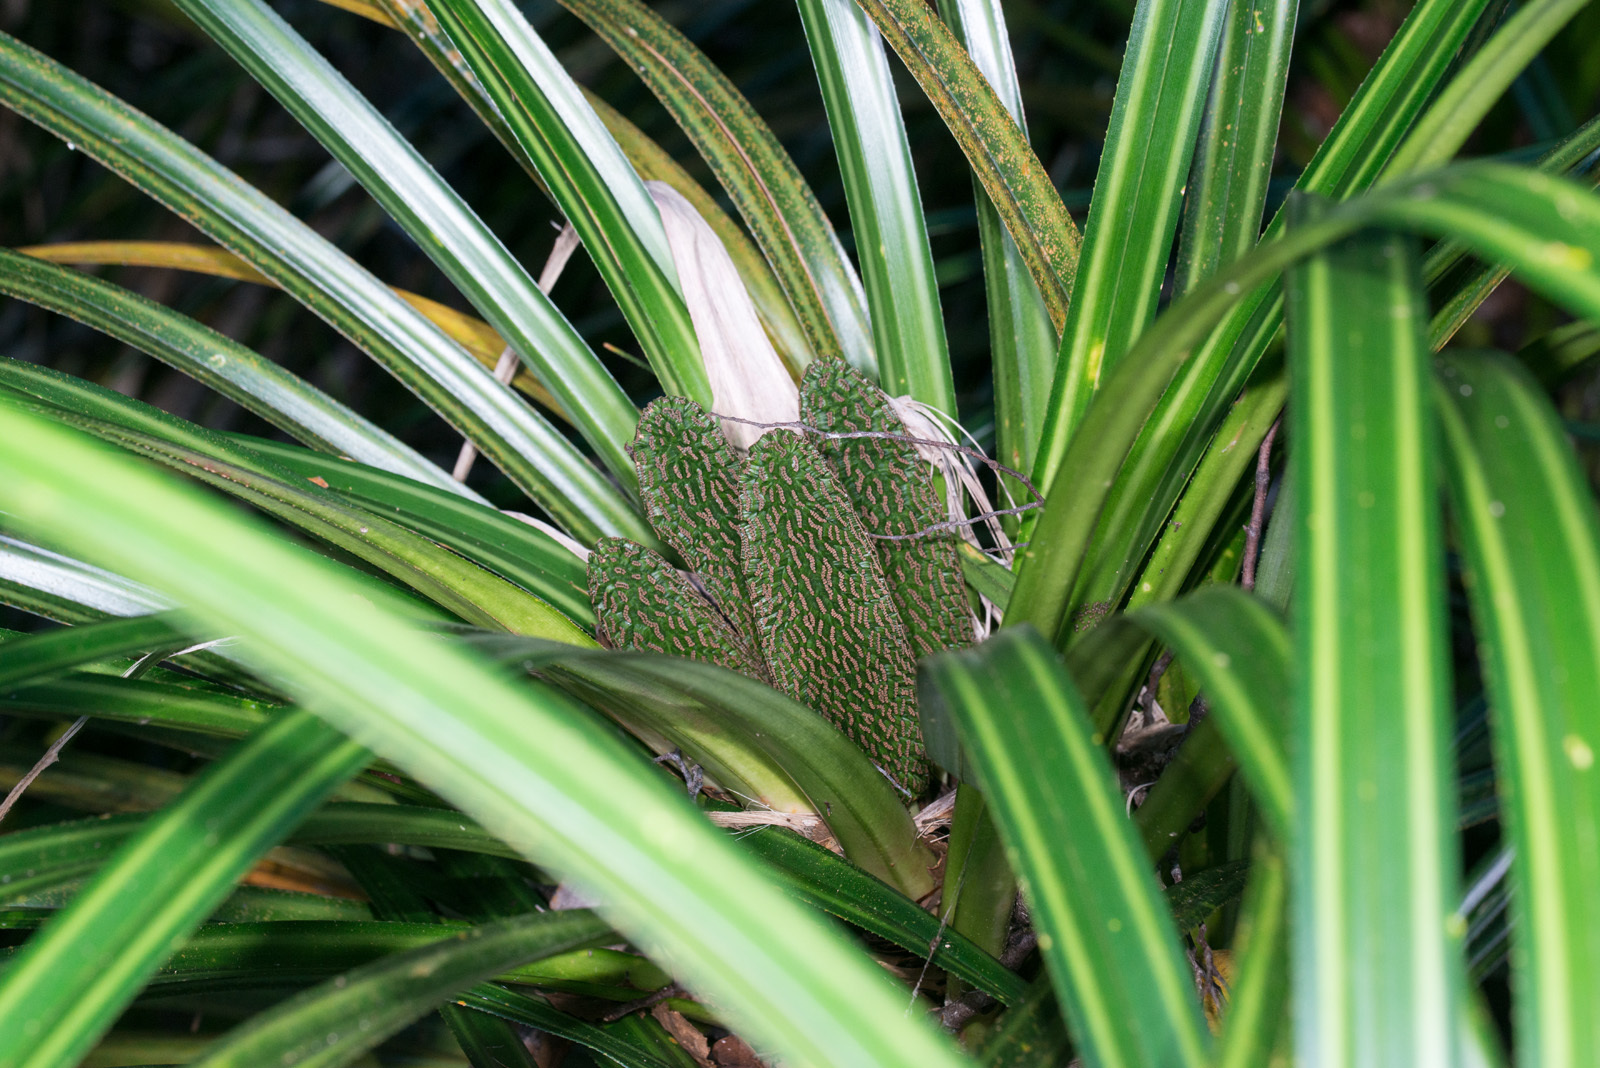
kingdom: Plantae
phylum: Tracheophyta
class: Liliopsida
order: Pandanales
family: Pandanaceae
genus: Freycinetia
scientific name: Freycinetia banksii
